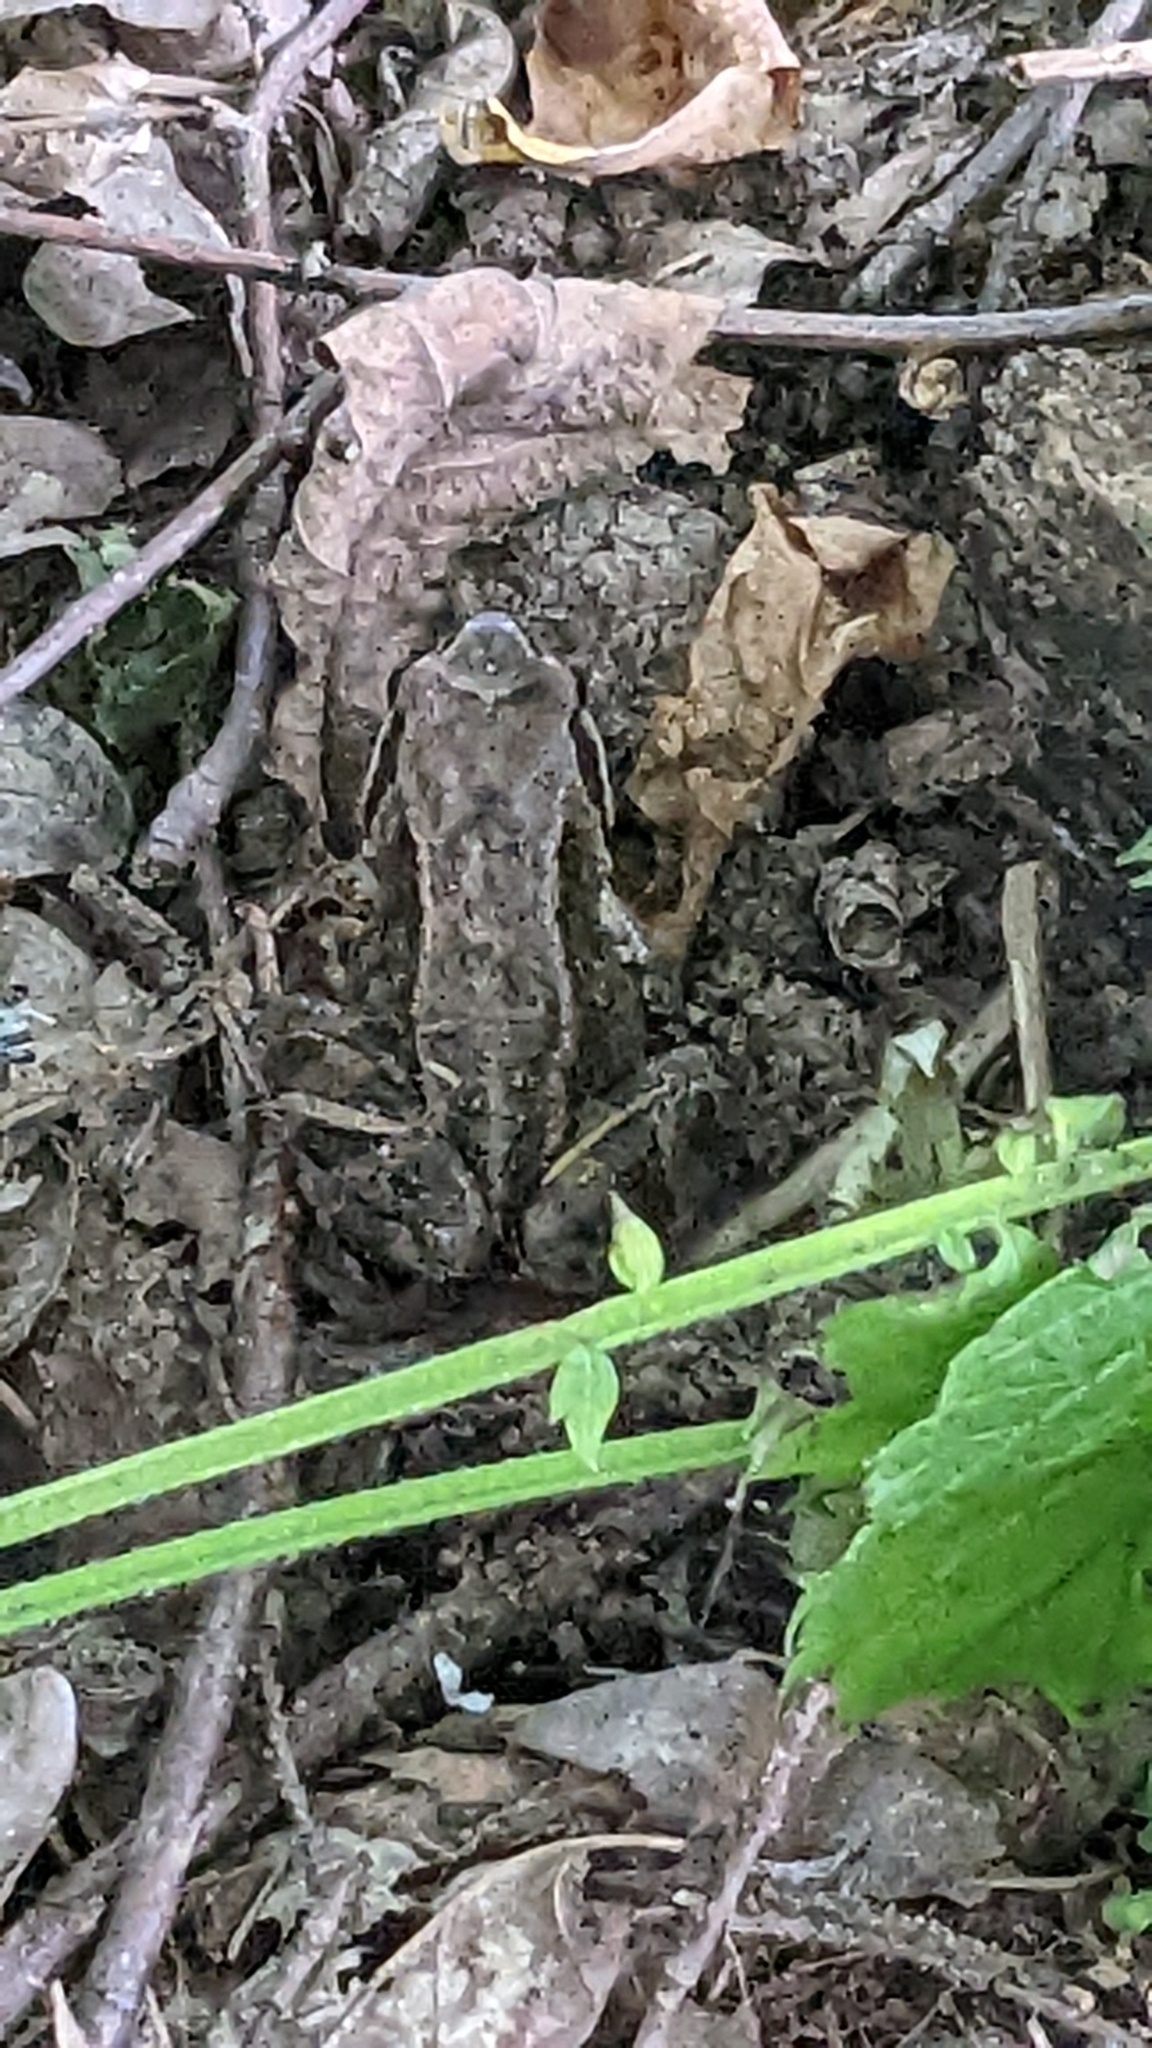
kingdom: Animalia
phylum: Chordata
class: Amphibia
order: Anura
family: Ranidae
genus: Rana
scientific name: Rana temporaria
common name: Common frog
